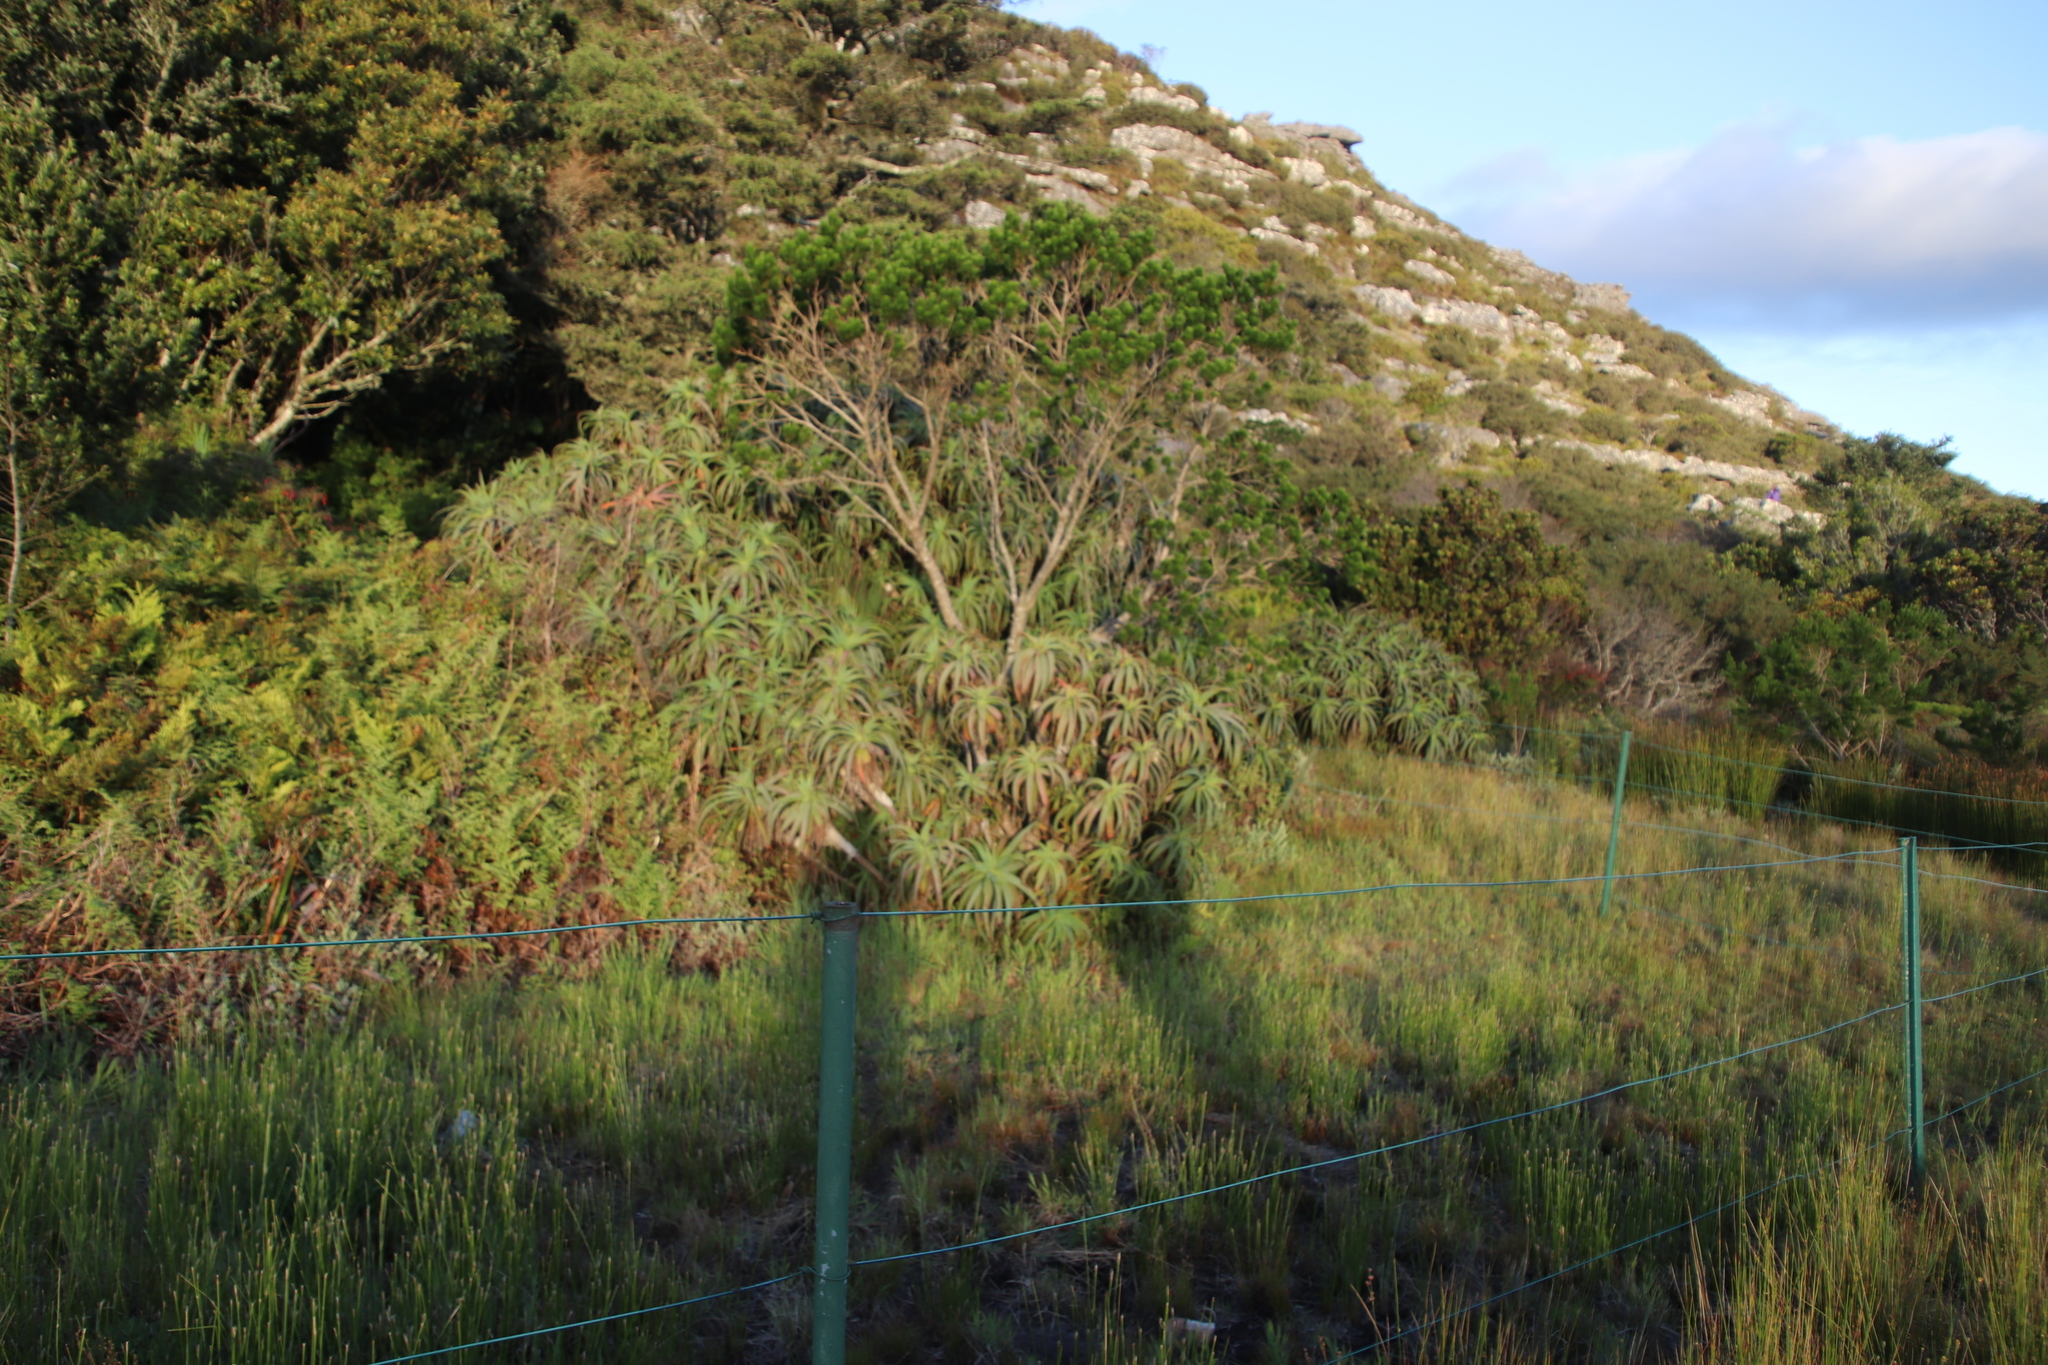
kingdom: Plantae
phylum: Tracheophyta
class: Liliopsida
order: Asparagales
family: Asphodelaceae
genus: Aloe
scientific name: Aloe arborescens
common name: Candelabra aloe
